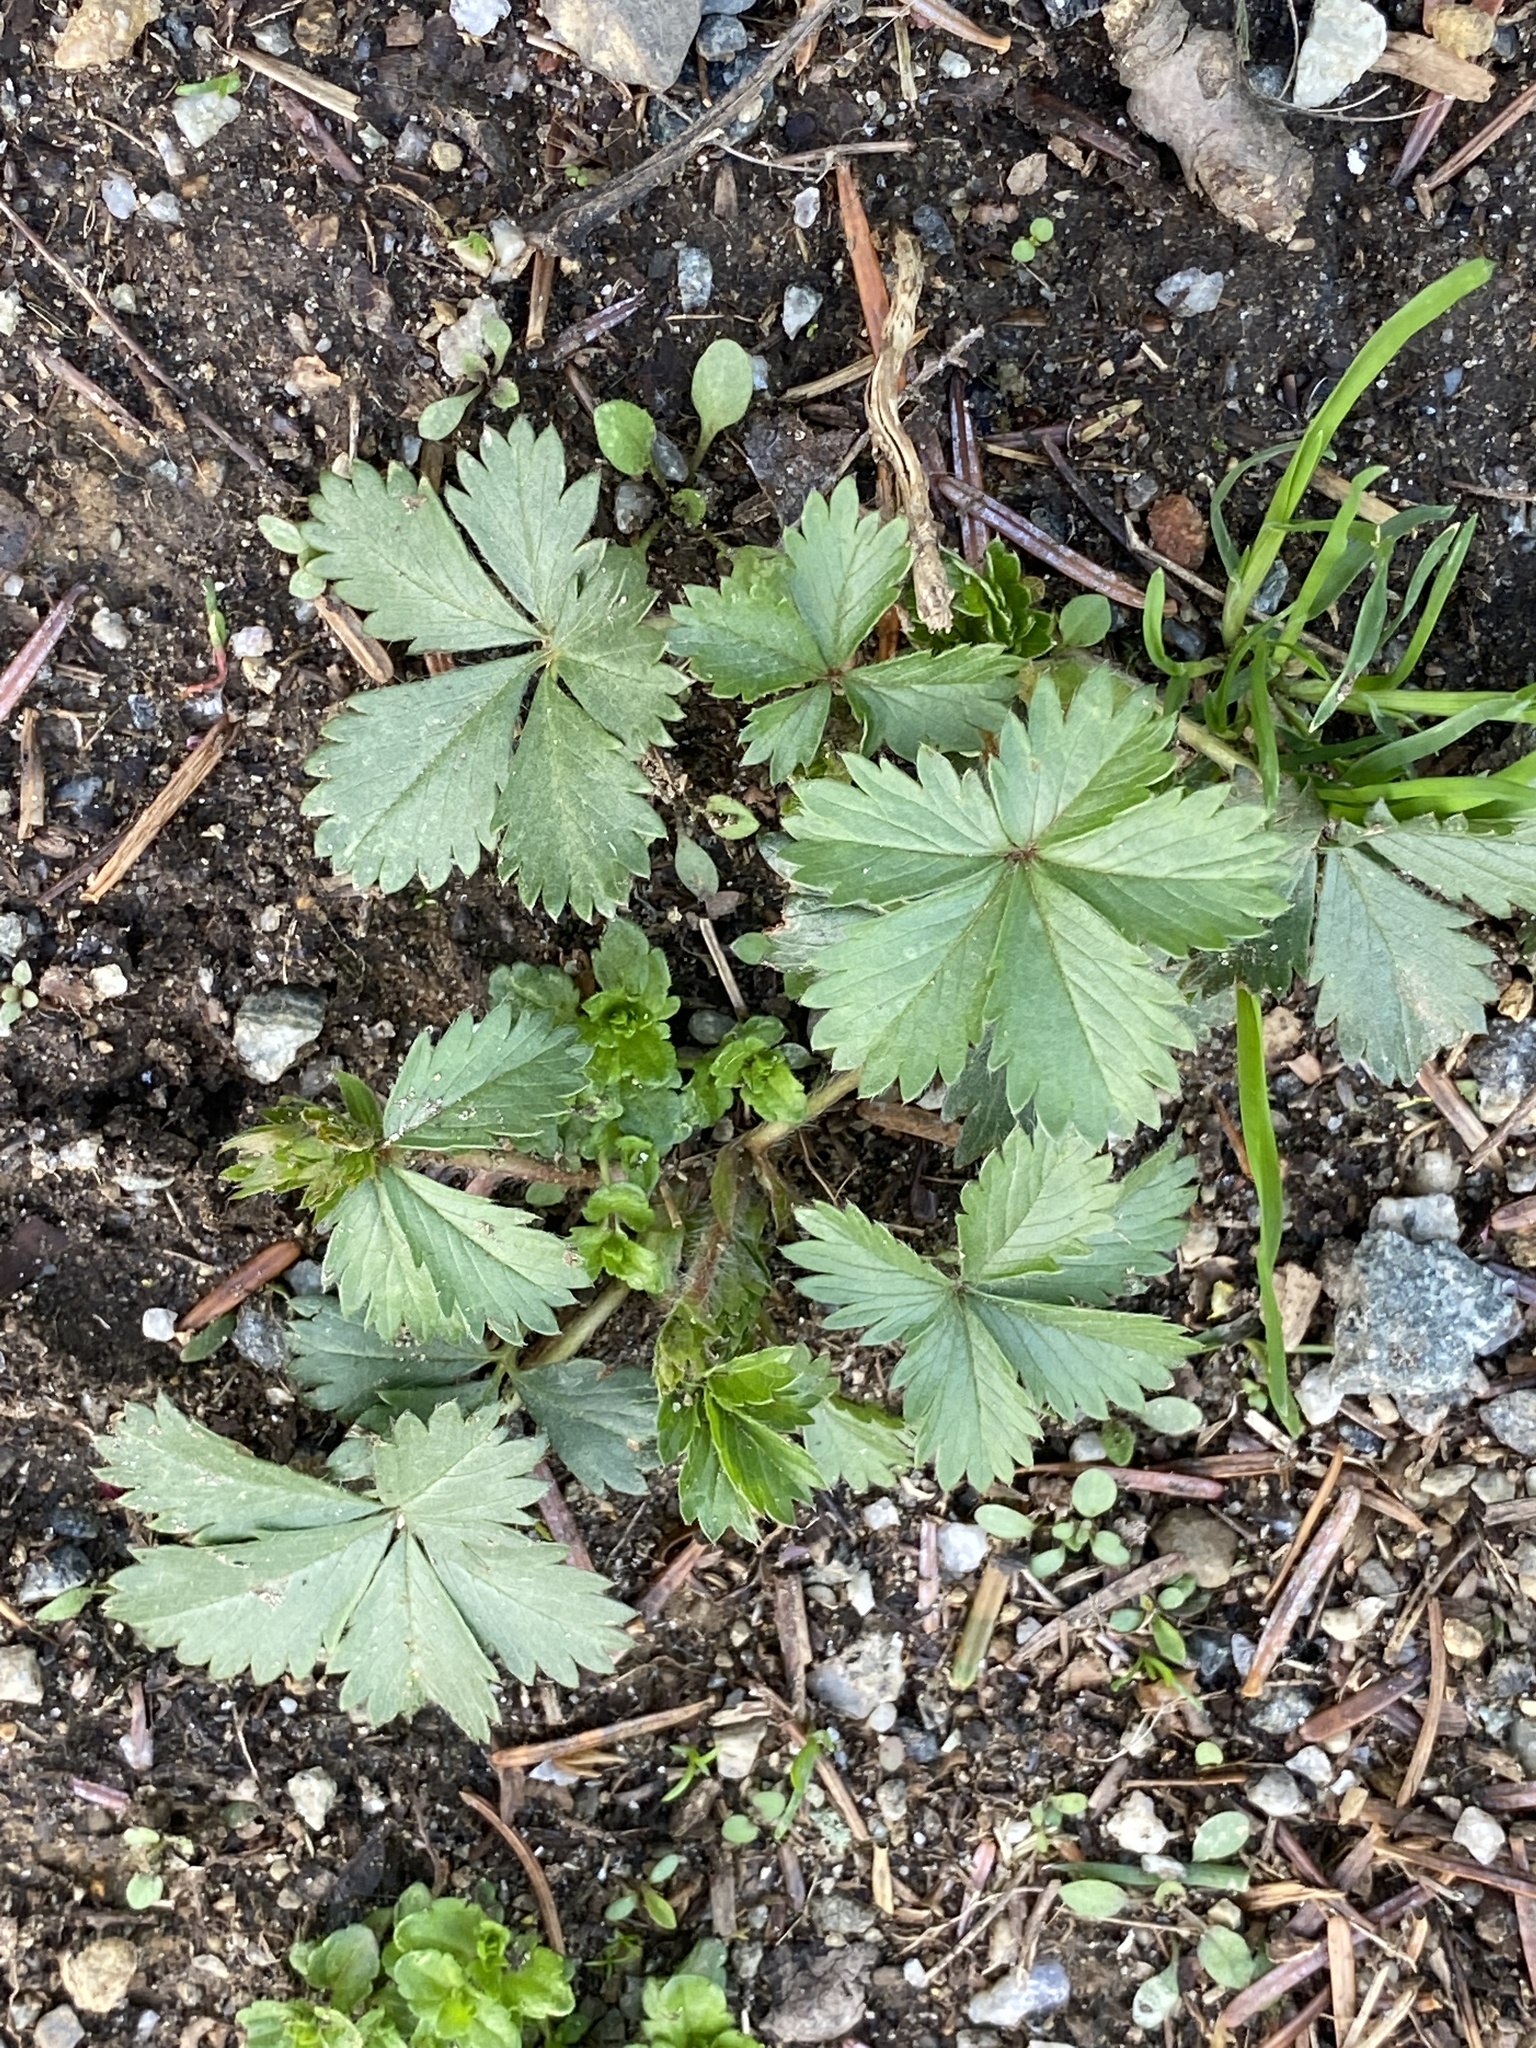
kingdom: Plantae
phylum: Tracheophyta
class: Magnoliopsida
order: Rosales
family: Rosaceae
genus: Potentilla
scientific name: Potentilla canadensis
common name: Canada cinquefoil
